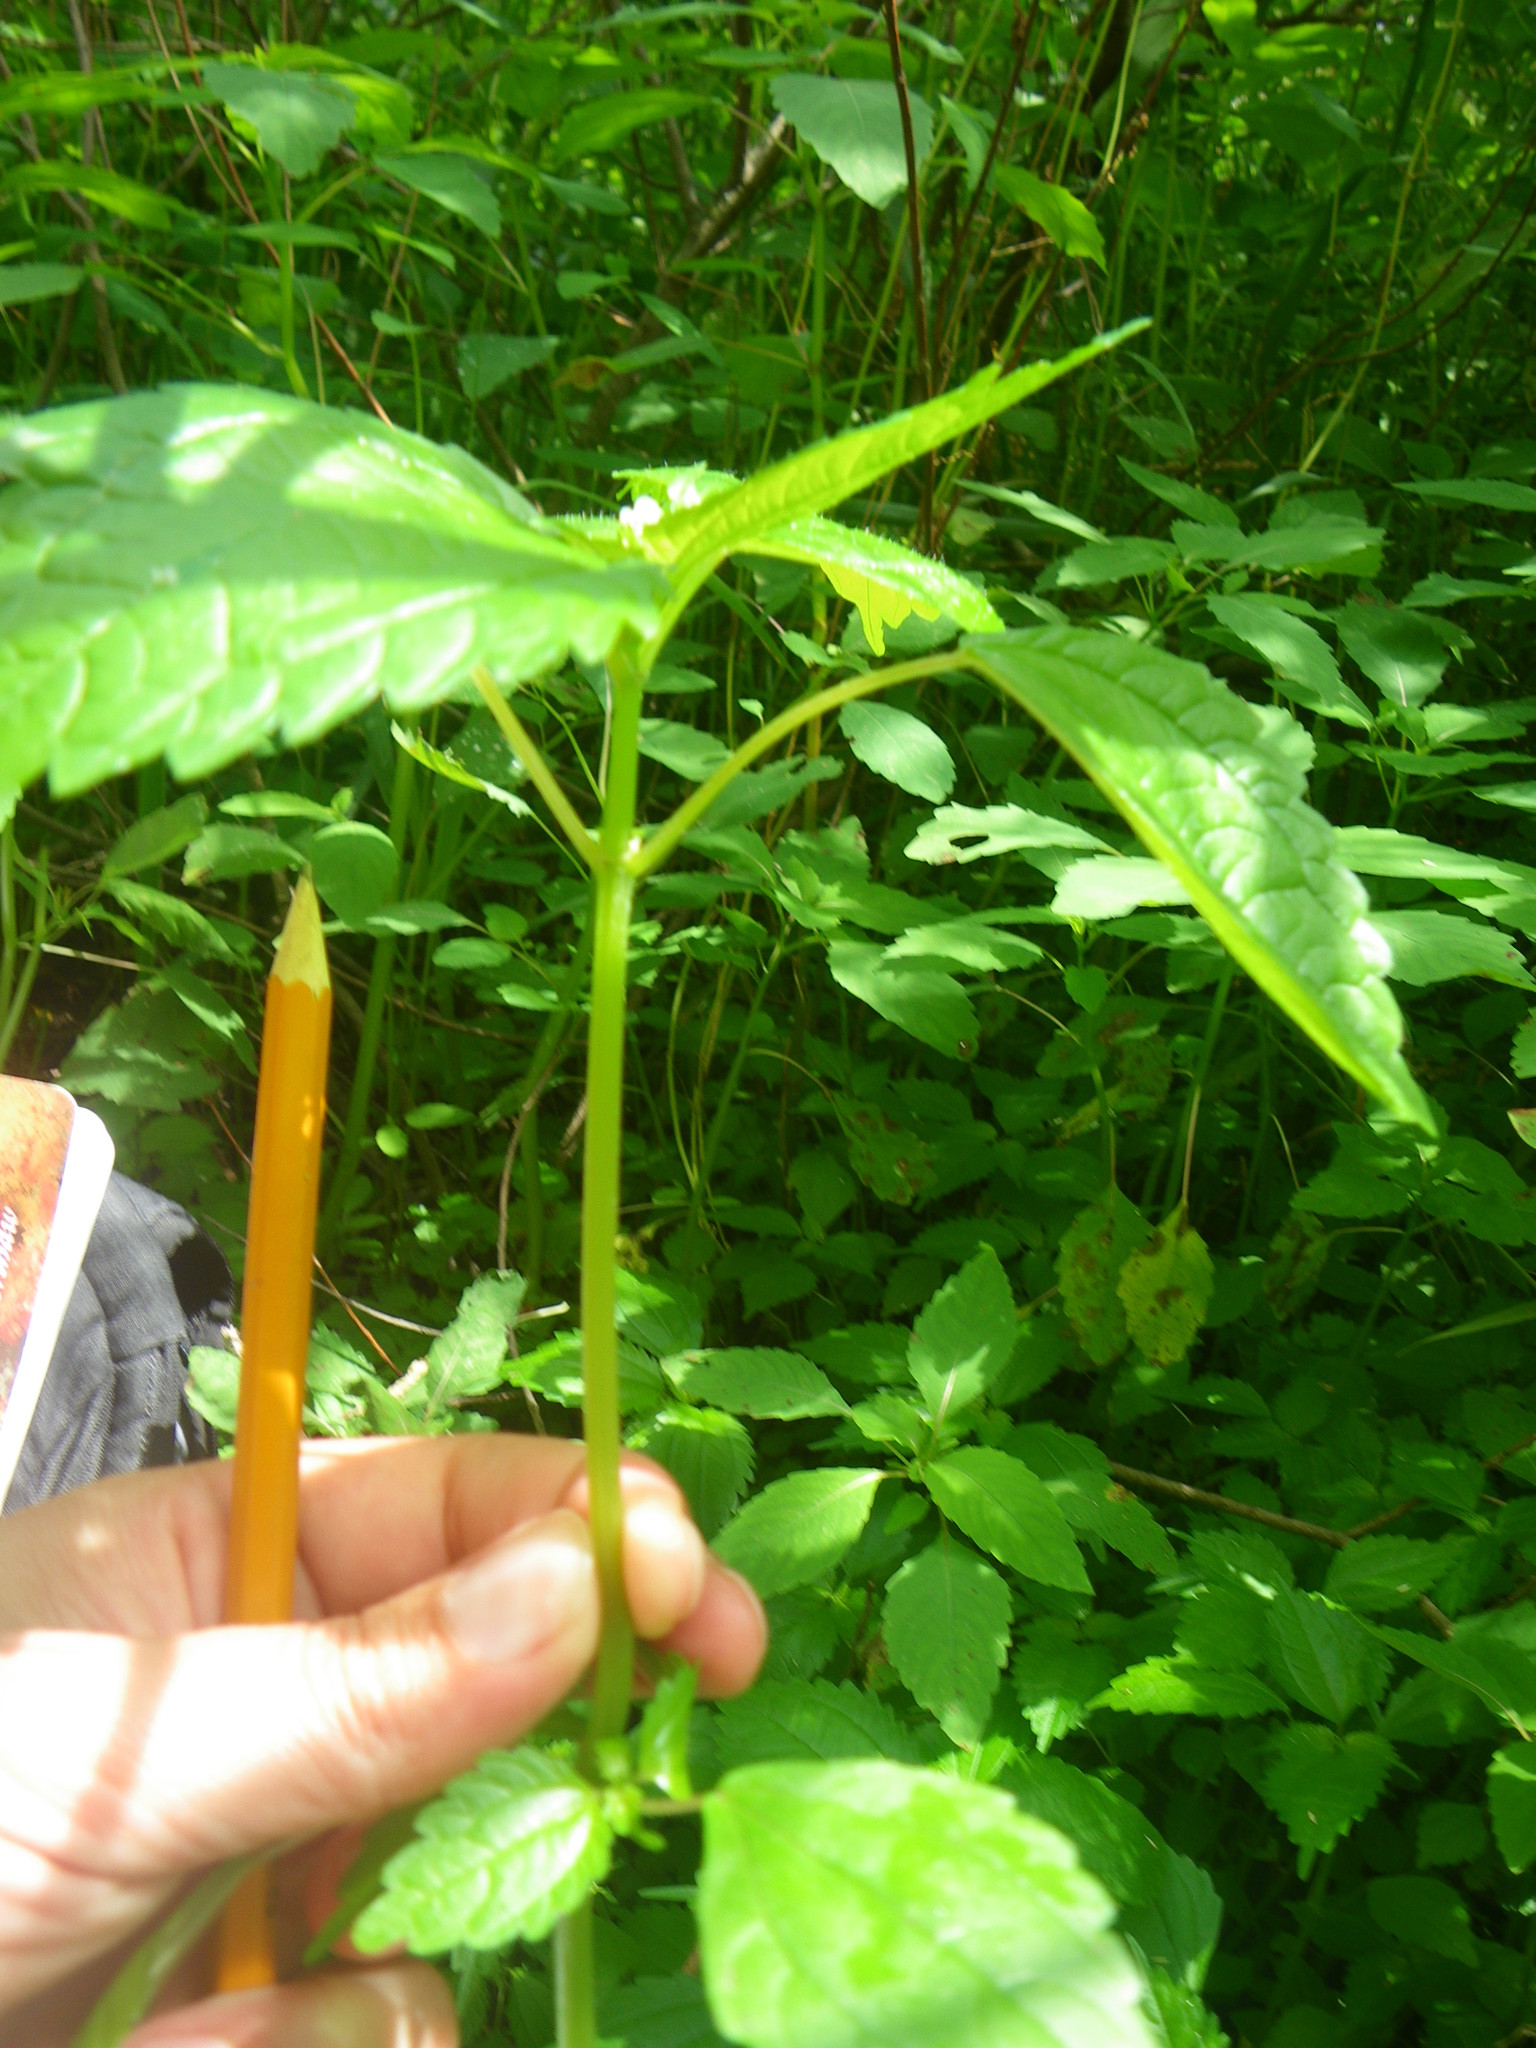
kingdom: Plantae
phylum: Tracheophyta
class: Magnoliopsida
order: Rosales
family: Urticaceae
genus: Pilea
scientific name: Pilea pumila
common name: Clearweed
